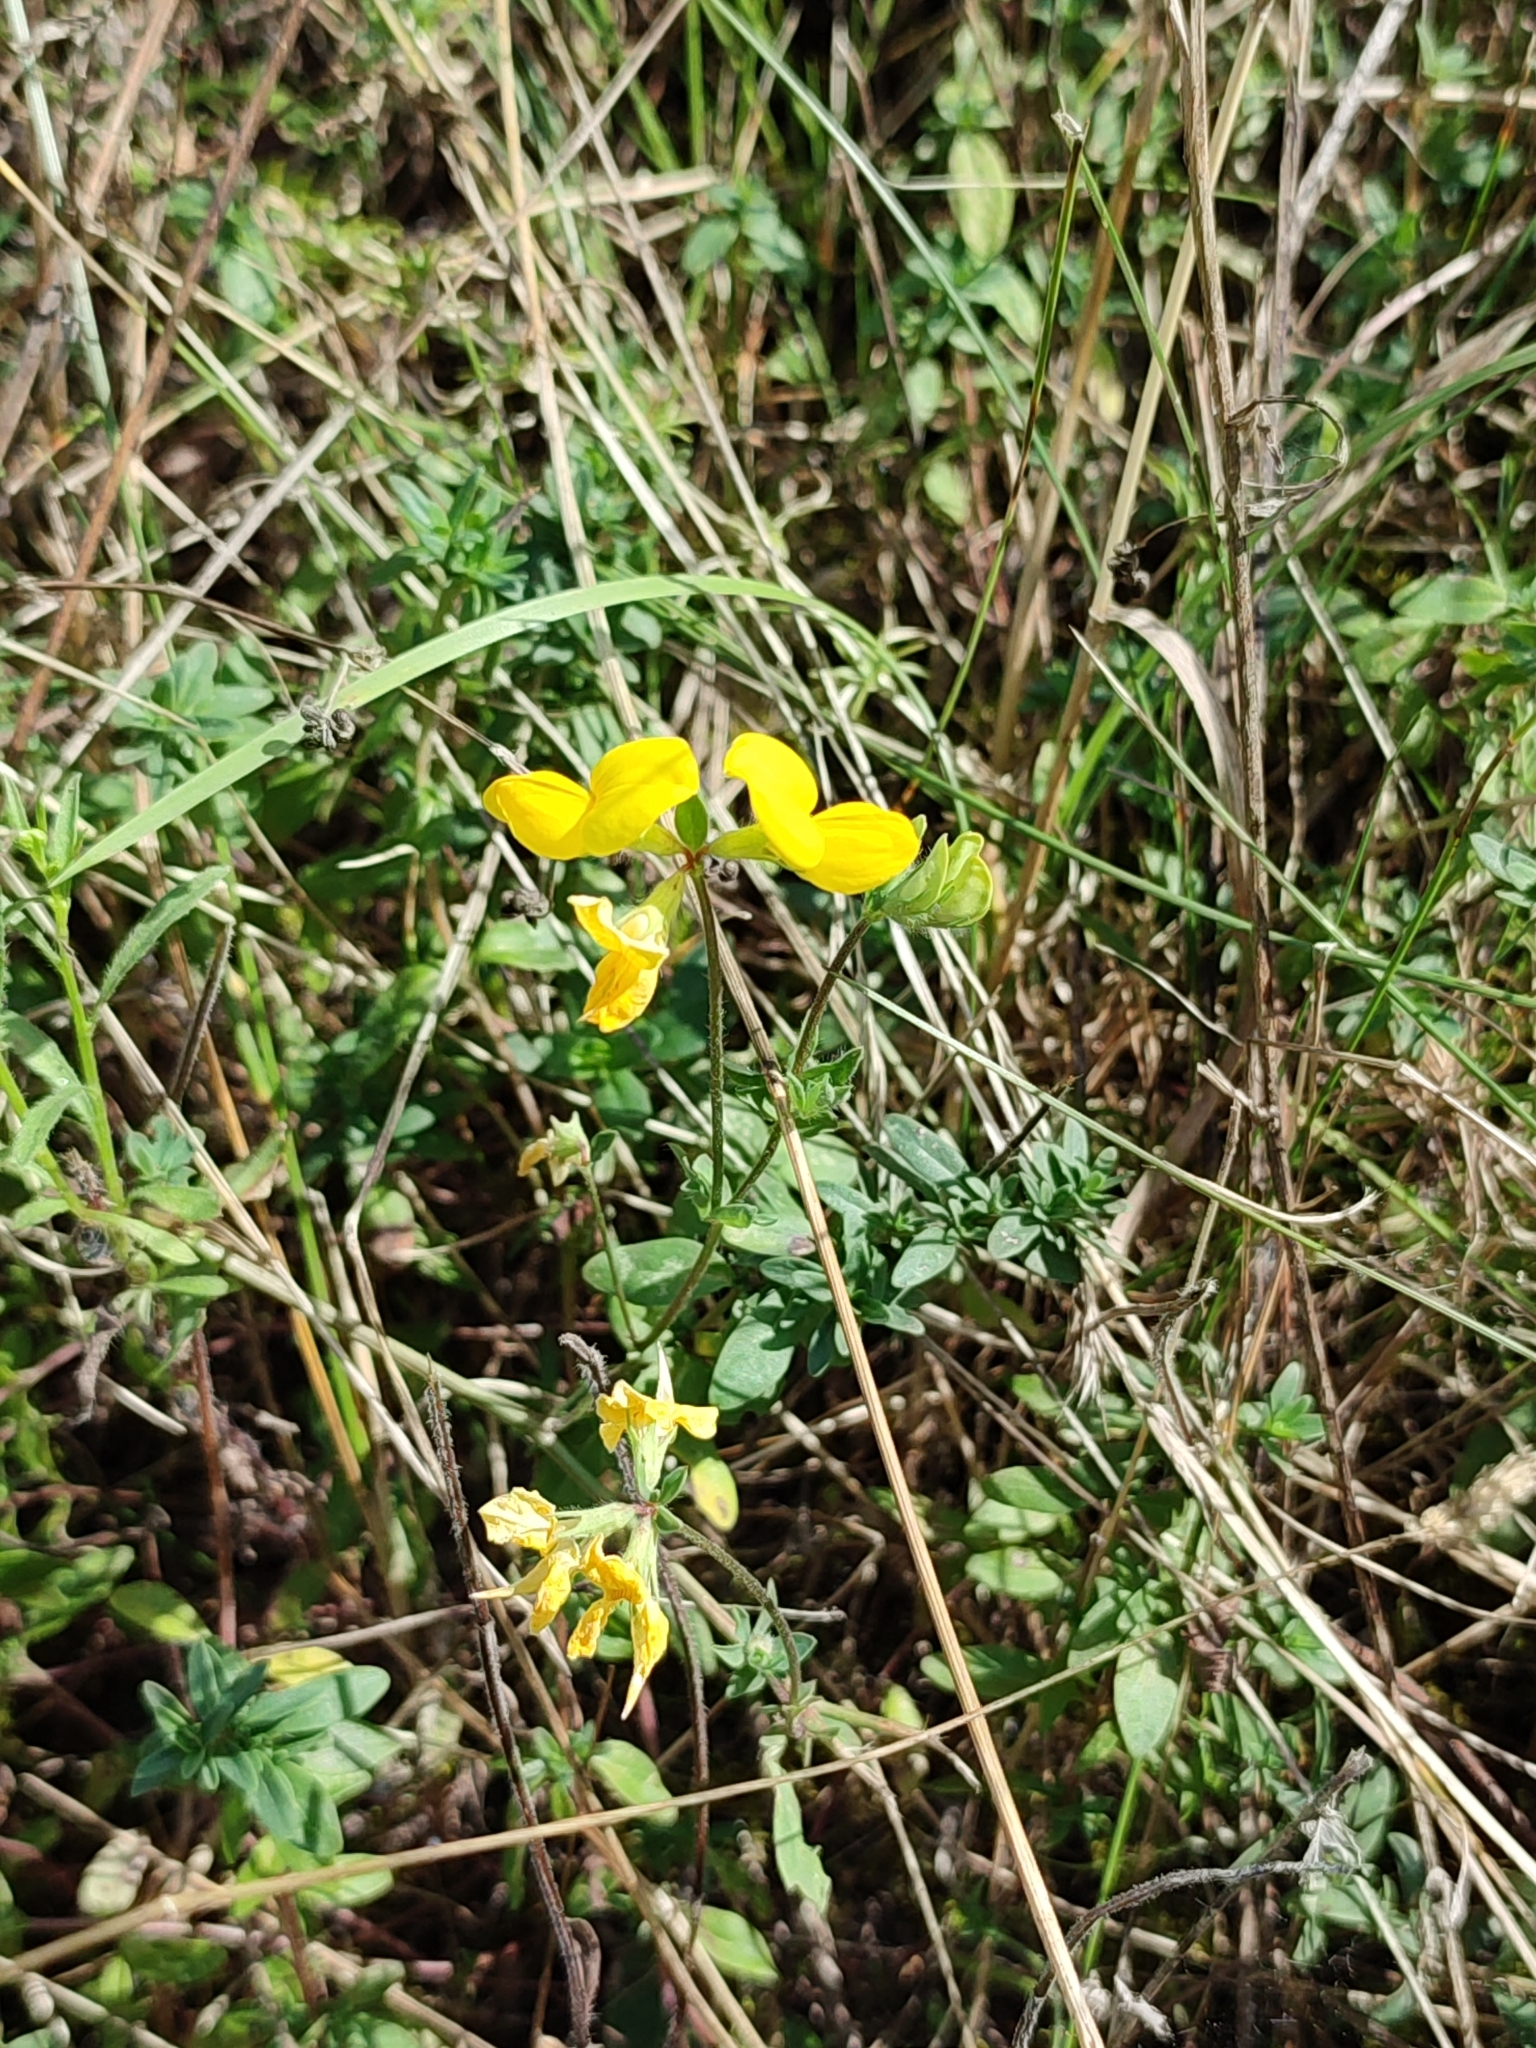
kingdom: Plantae
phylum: Tracheophyta
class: Magnoliopsida
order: Fabales
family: Fabaceae
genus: Lotus
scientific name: Lotus corniculatus
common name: Common bird's-foot-trefoil
